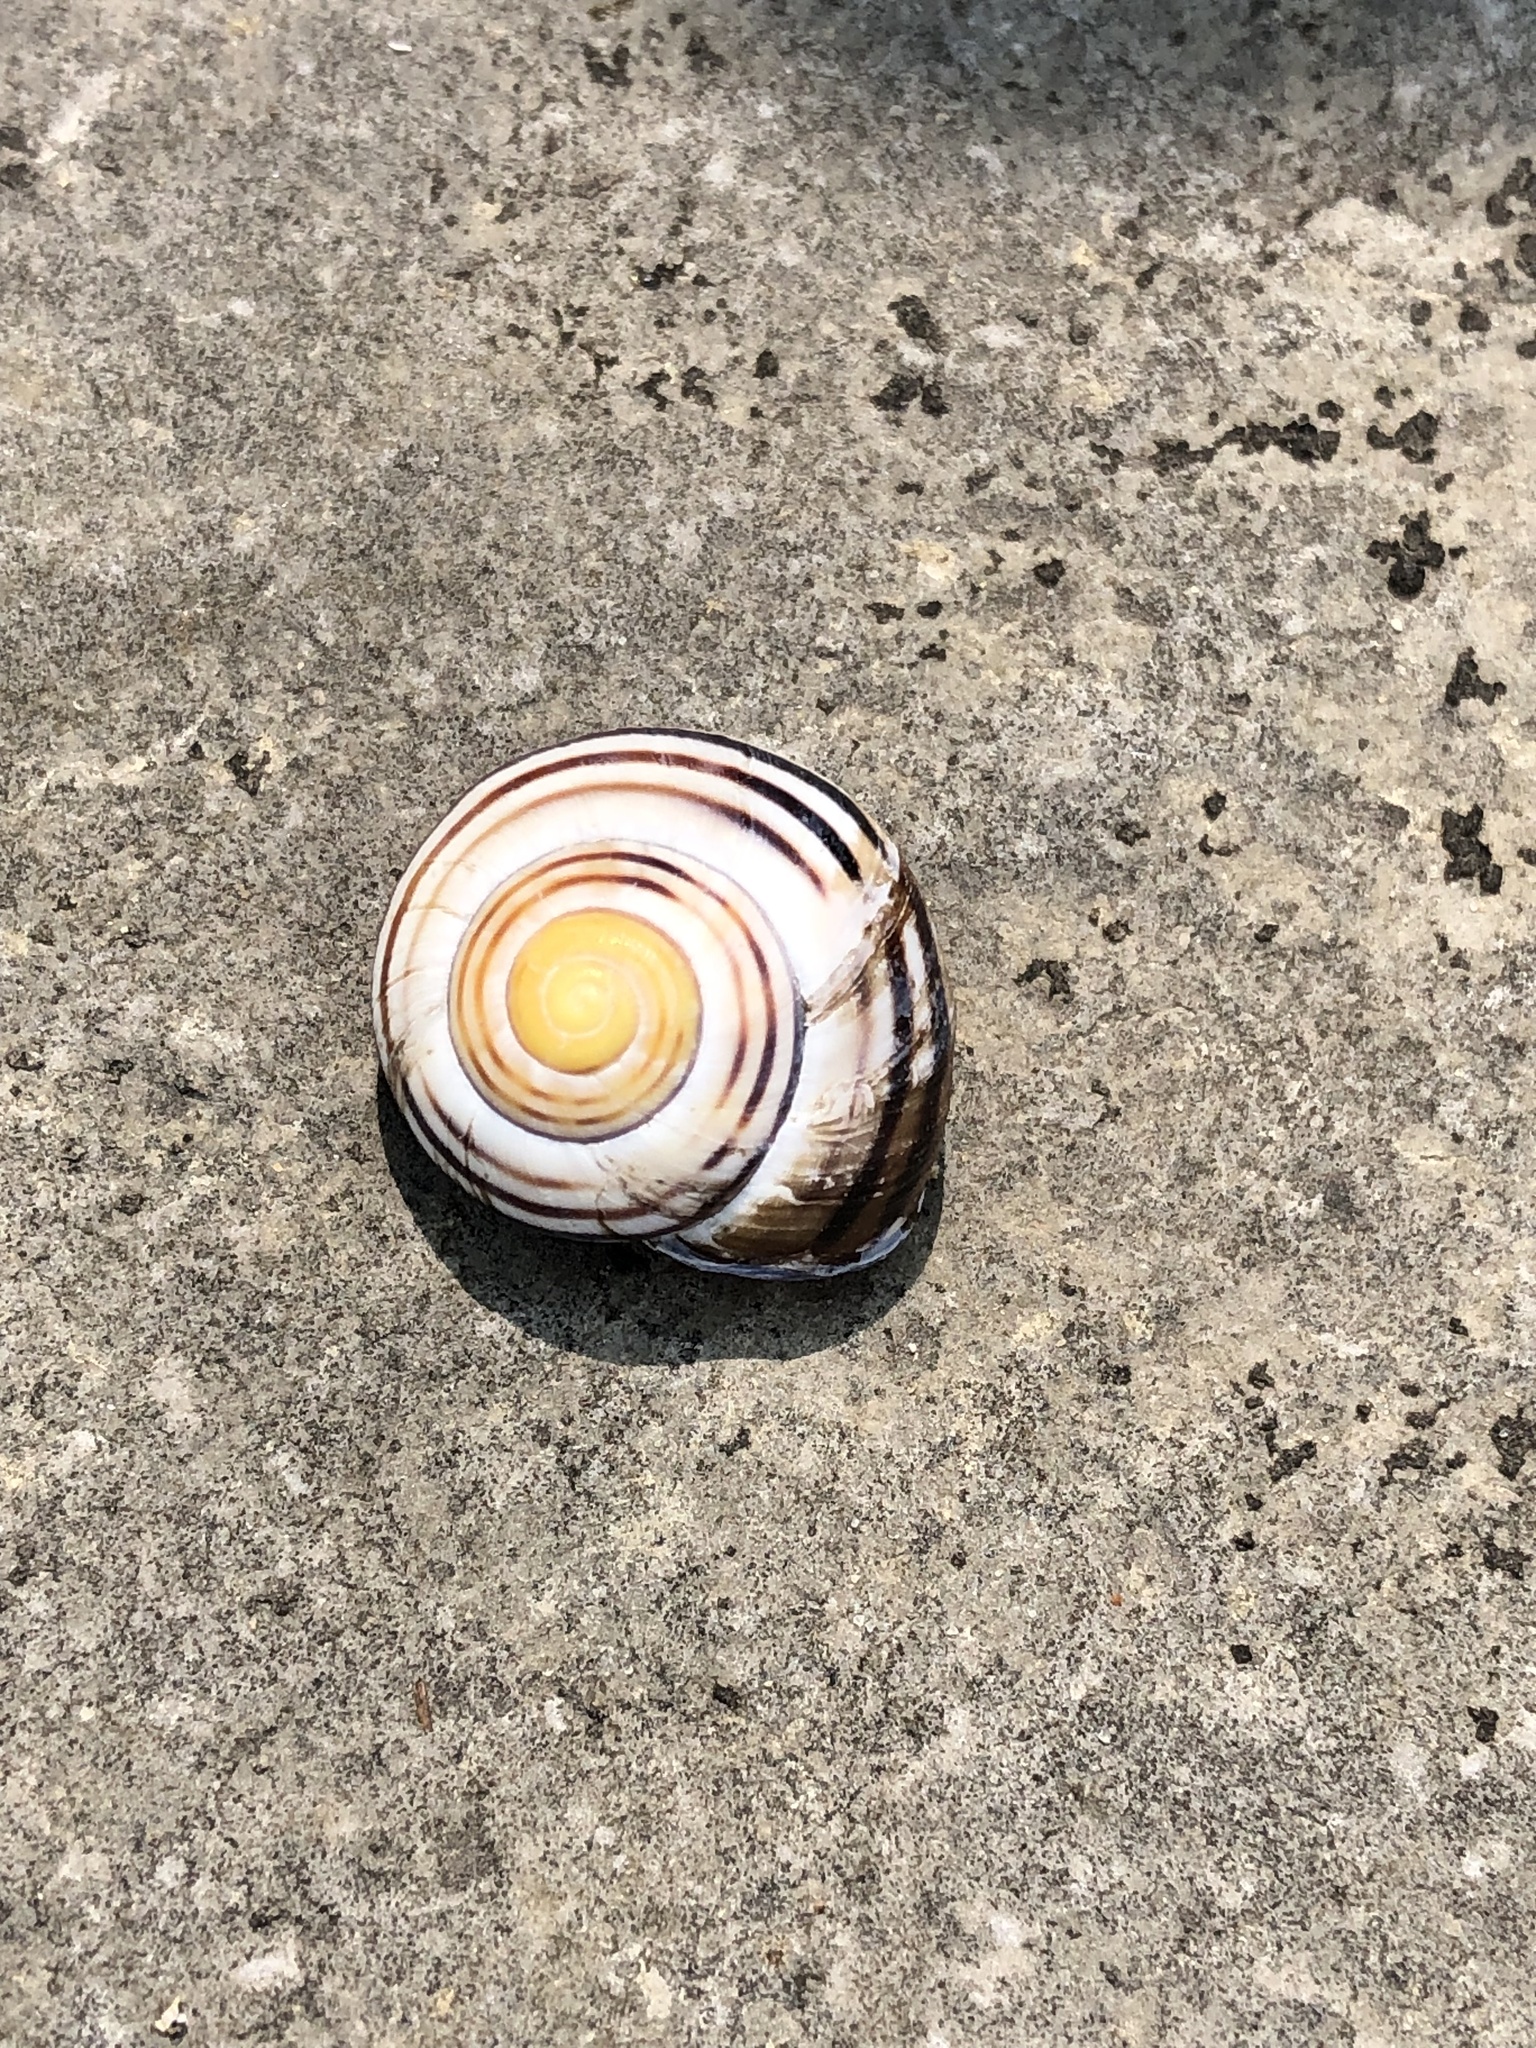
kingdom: Animalia
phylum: Mollusca
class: Gastropoda
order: Stylommatophora
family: Helicidae
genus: Cepaea
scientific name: Cepaea nemoralis
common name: Grovesnail
